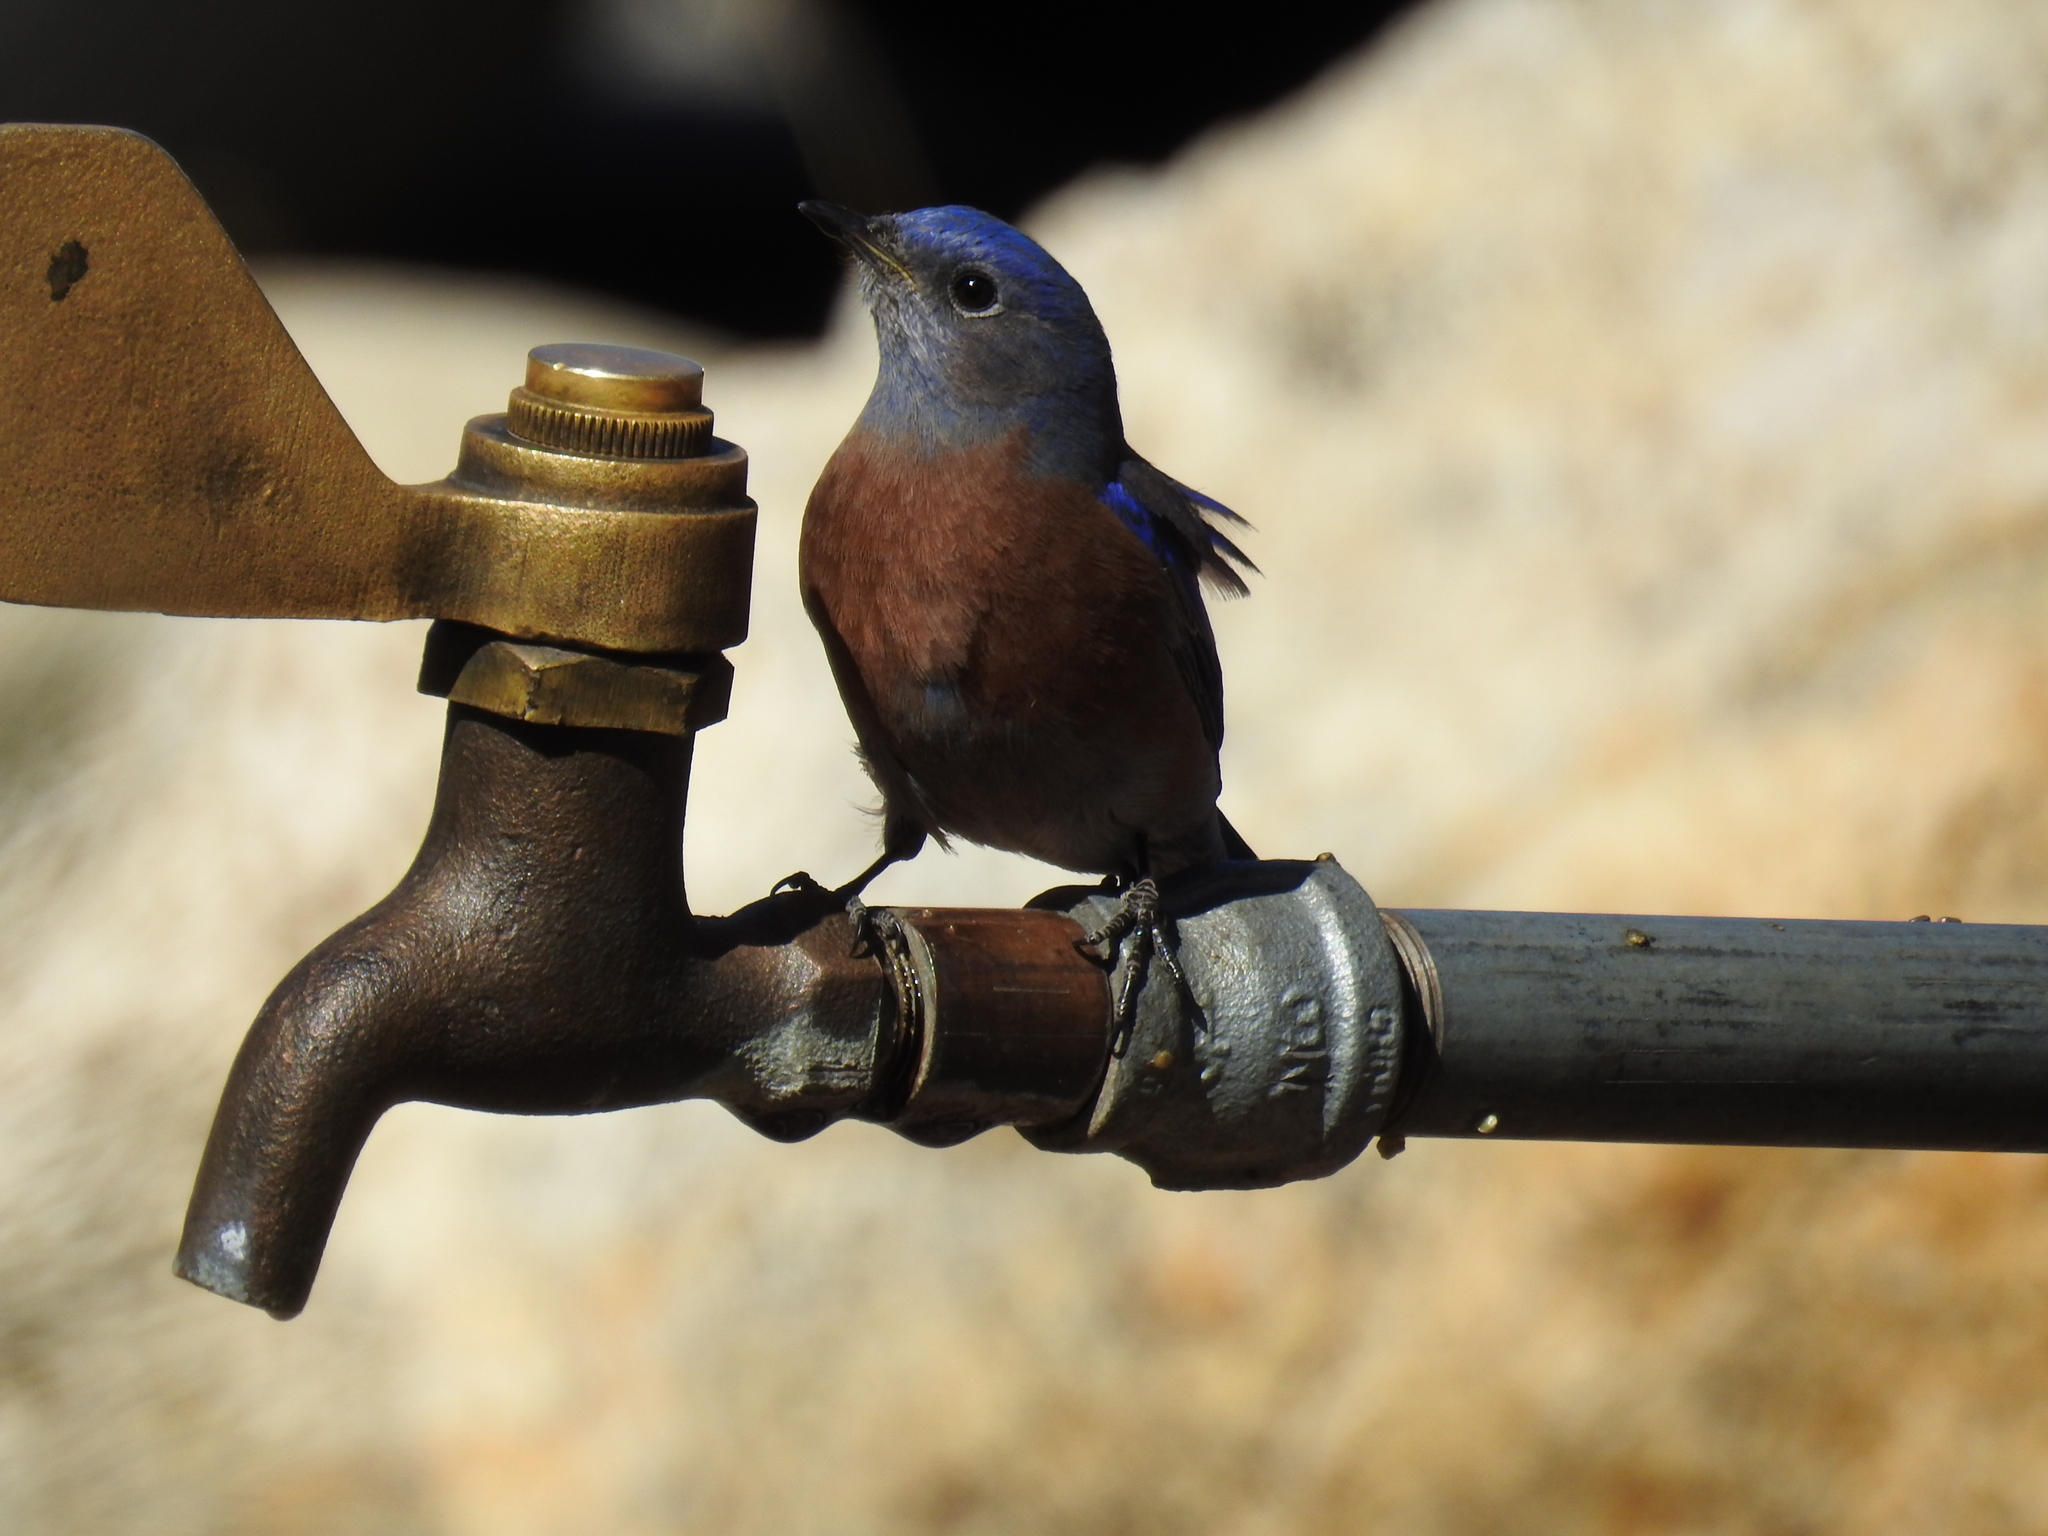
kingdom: Animalia
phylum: Chordata
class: Aves
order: Passeriformes
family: Turdidae
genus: Sialia
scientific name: Sialia mexicana
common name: Western bluebird
